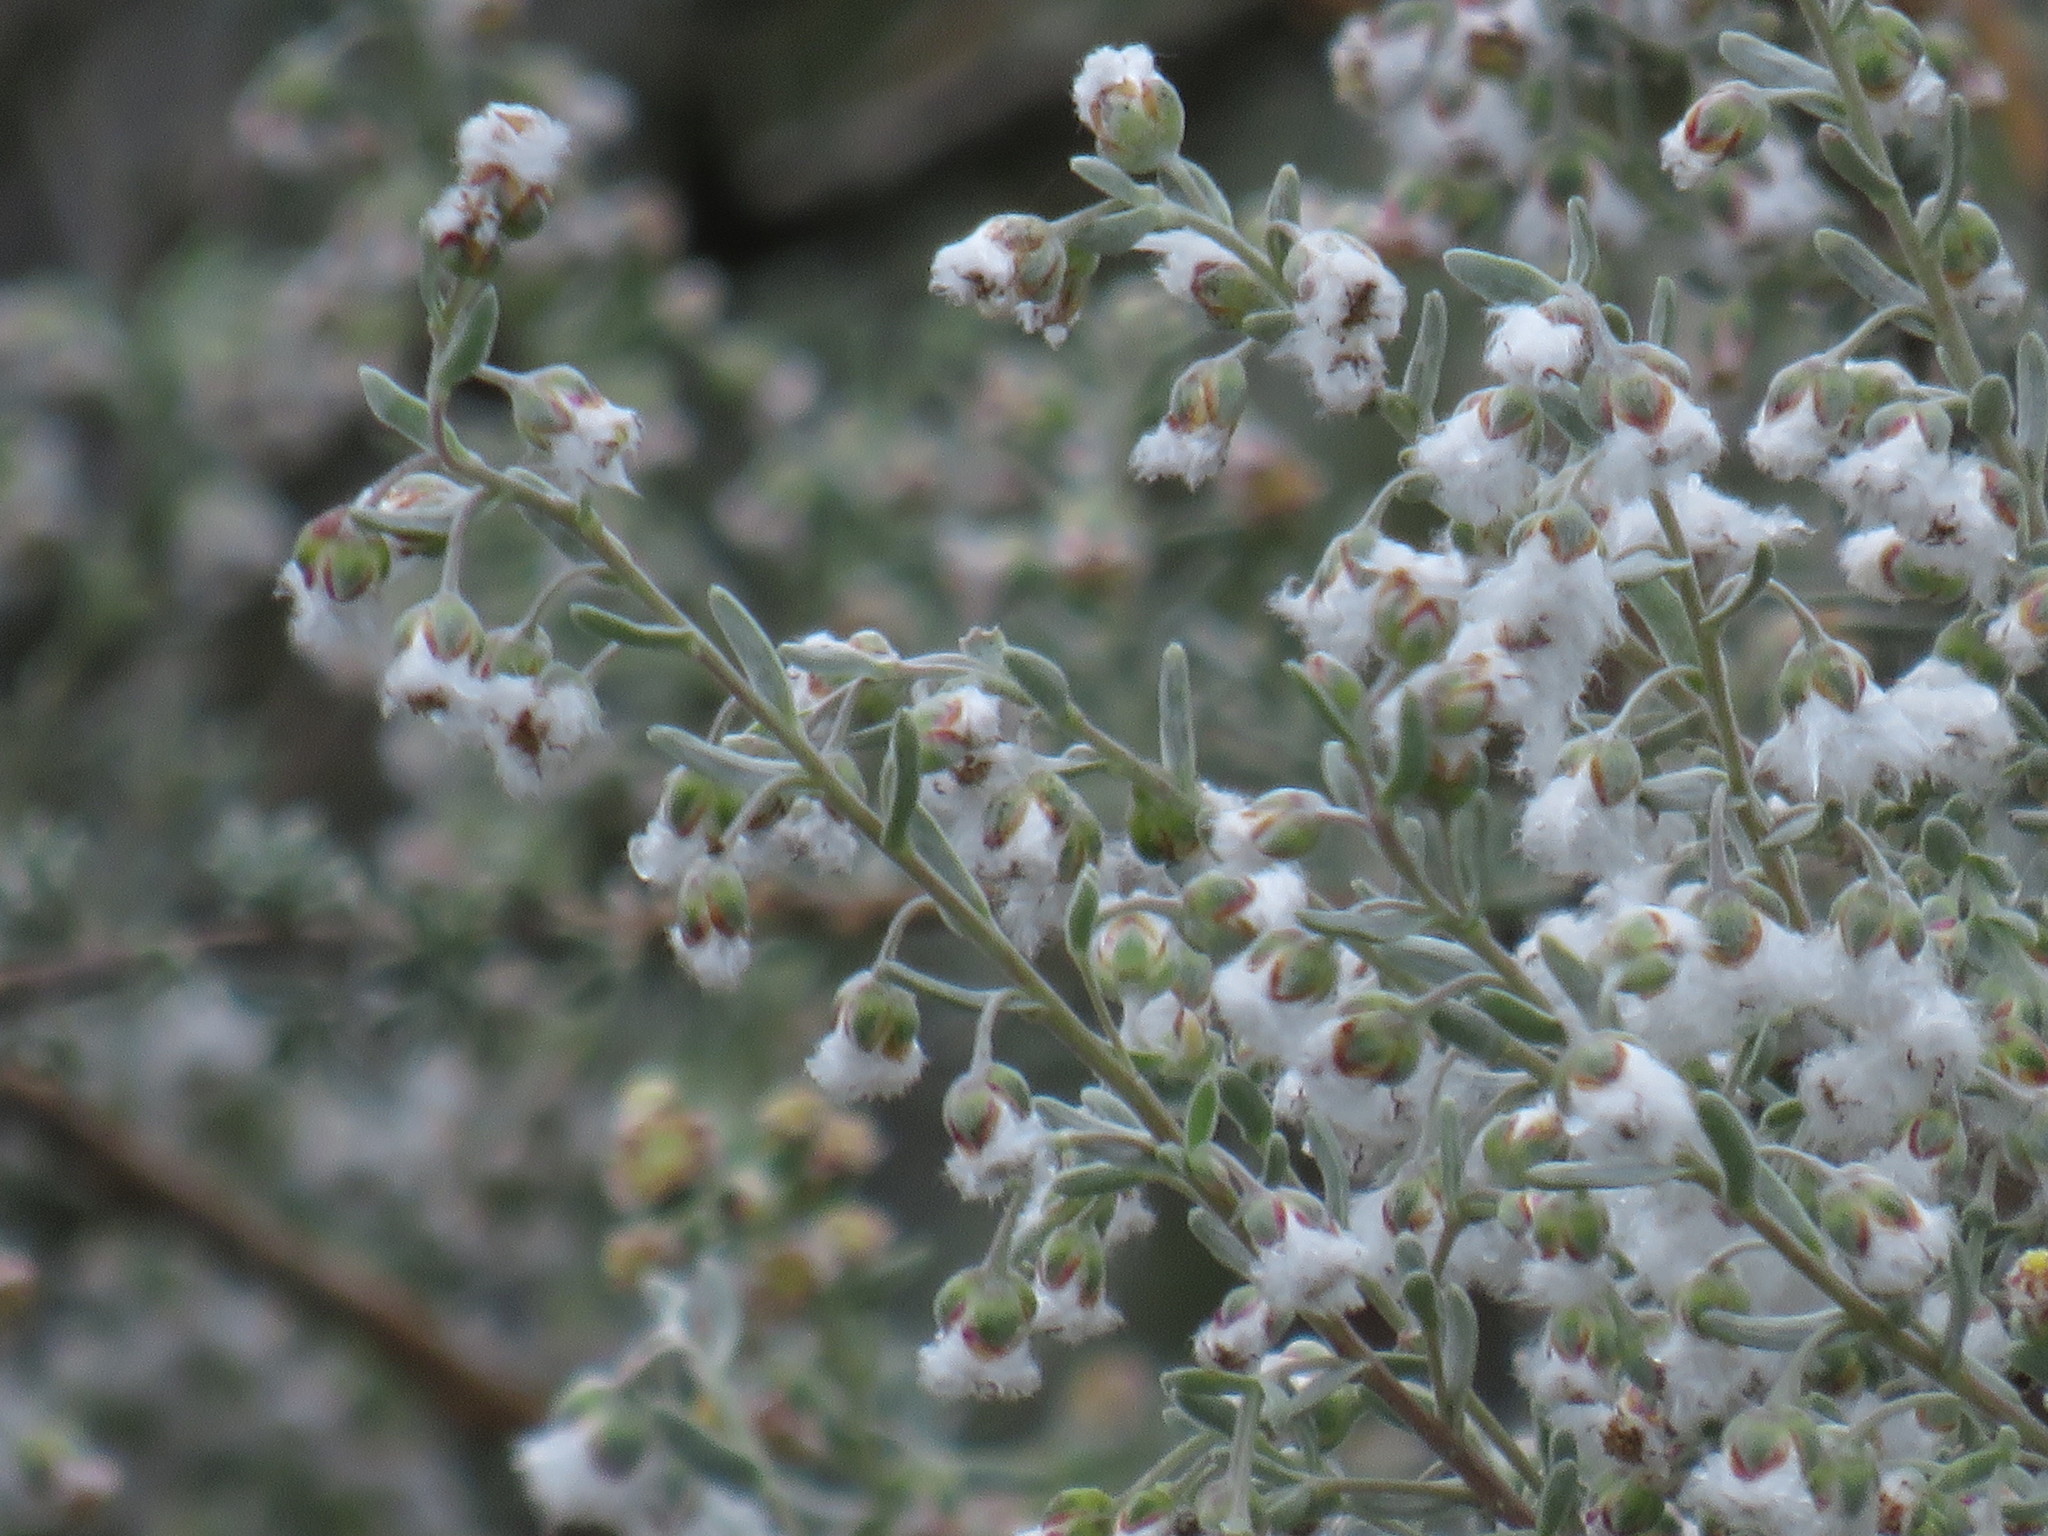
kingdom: Plantae
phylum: Tracheophyta
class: Magnoliopsida
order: Asterales
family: Asteraceae
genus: Eriocephalus
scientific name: Eriocephalus racemosus
